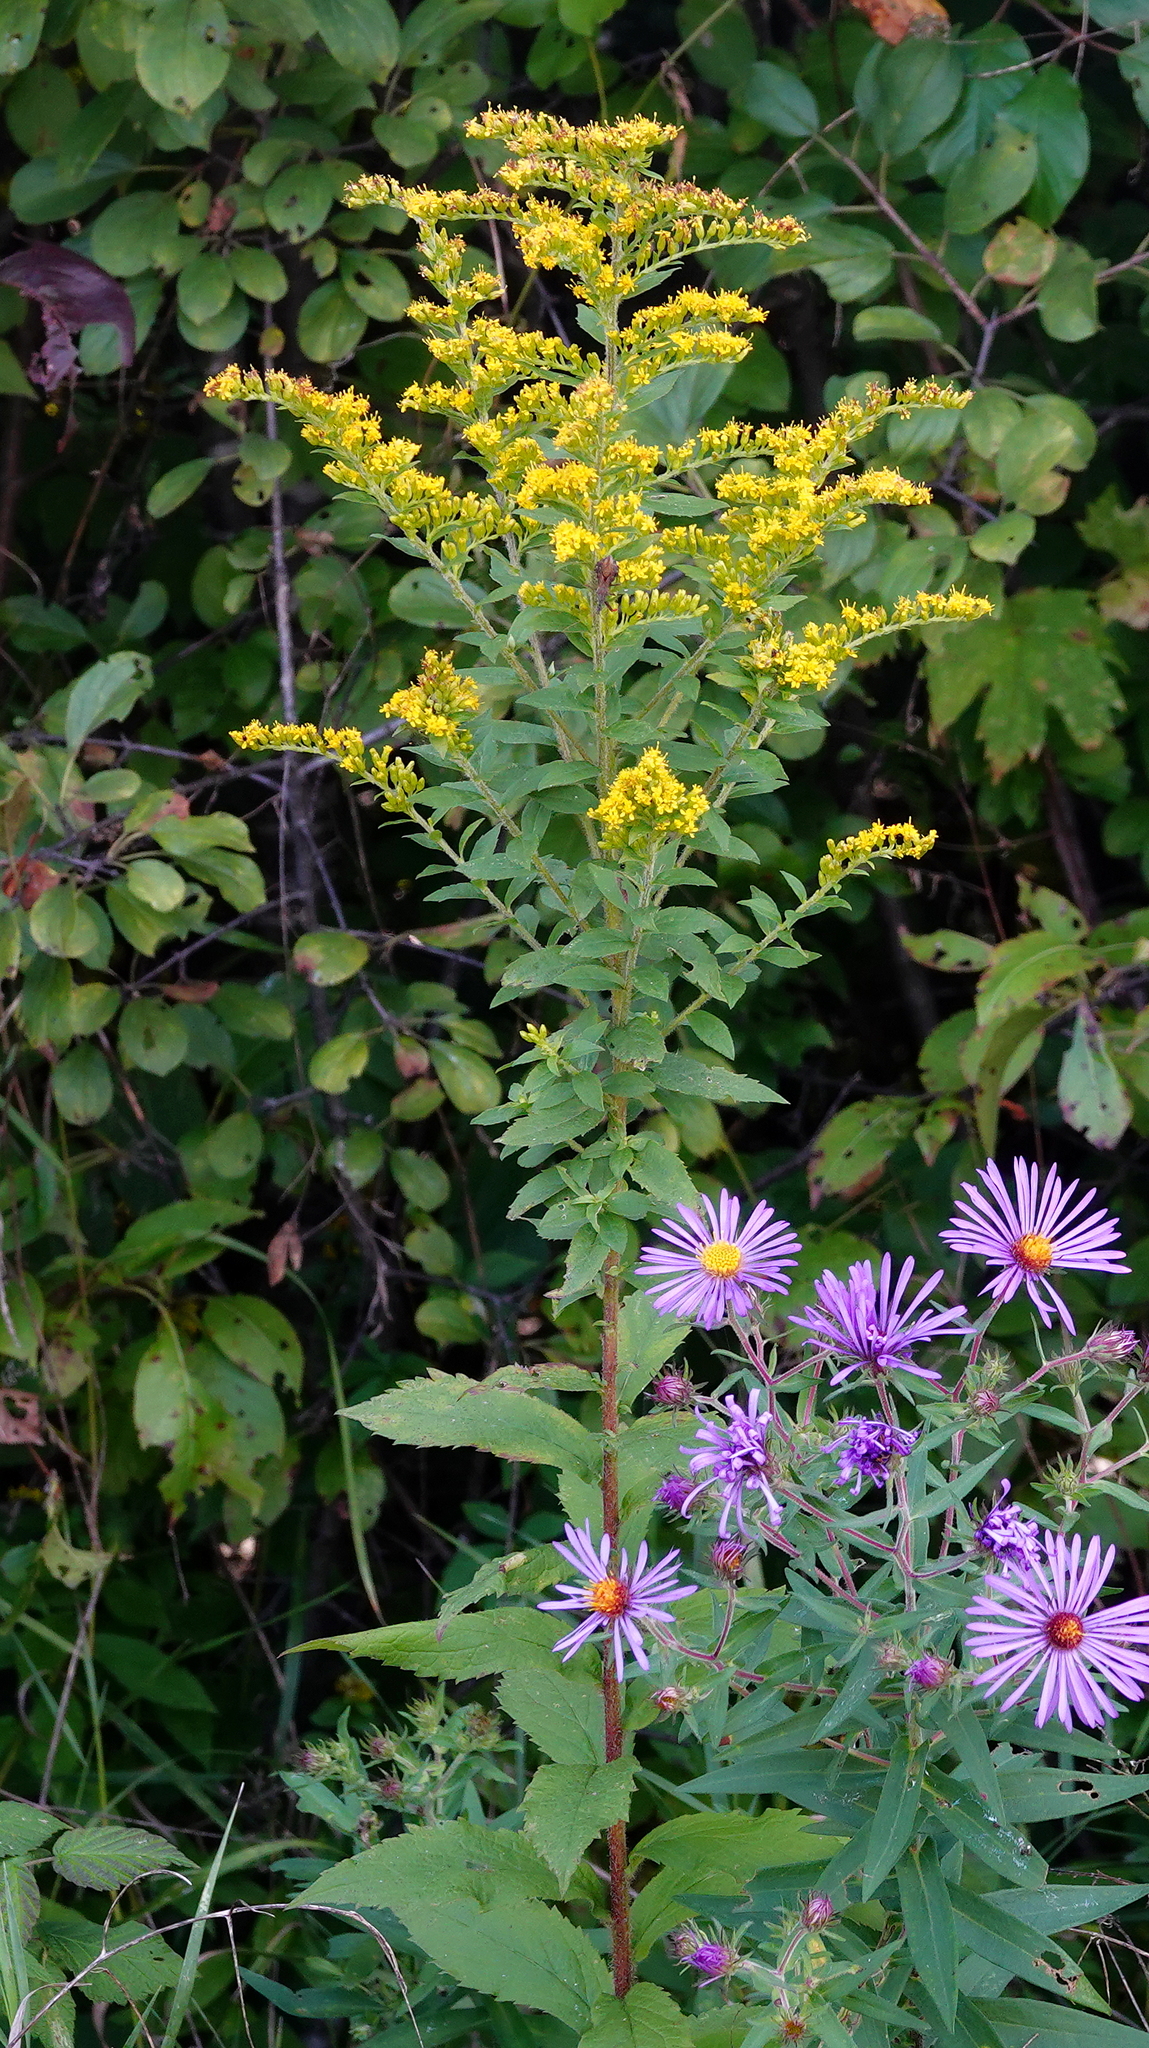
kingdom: Plantae
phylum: Tracheophyta
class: Magnoliopsida
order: Asterales
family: Asteraceae
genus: Solidago
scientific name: Solidago rugosa
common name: Rough-stemmed goldenrod
